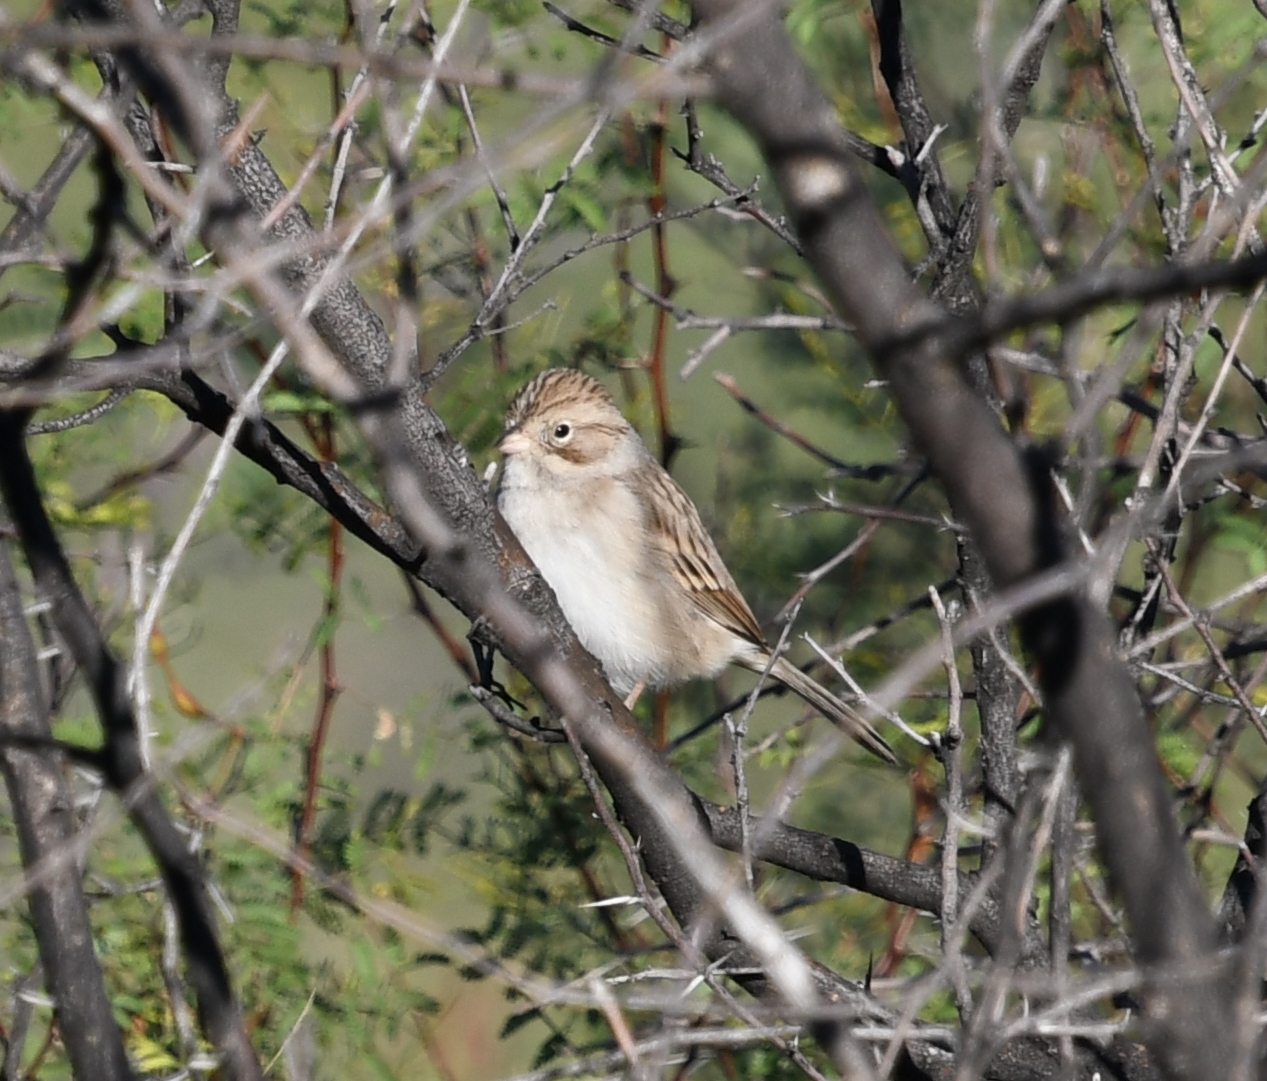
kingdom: Animalia
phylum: Chordata
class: Aves
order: Passeriformes
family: Passerellidae
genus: Spizella
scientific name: Spizella pallida
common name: Clay-colored sparrow
